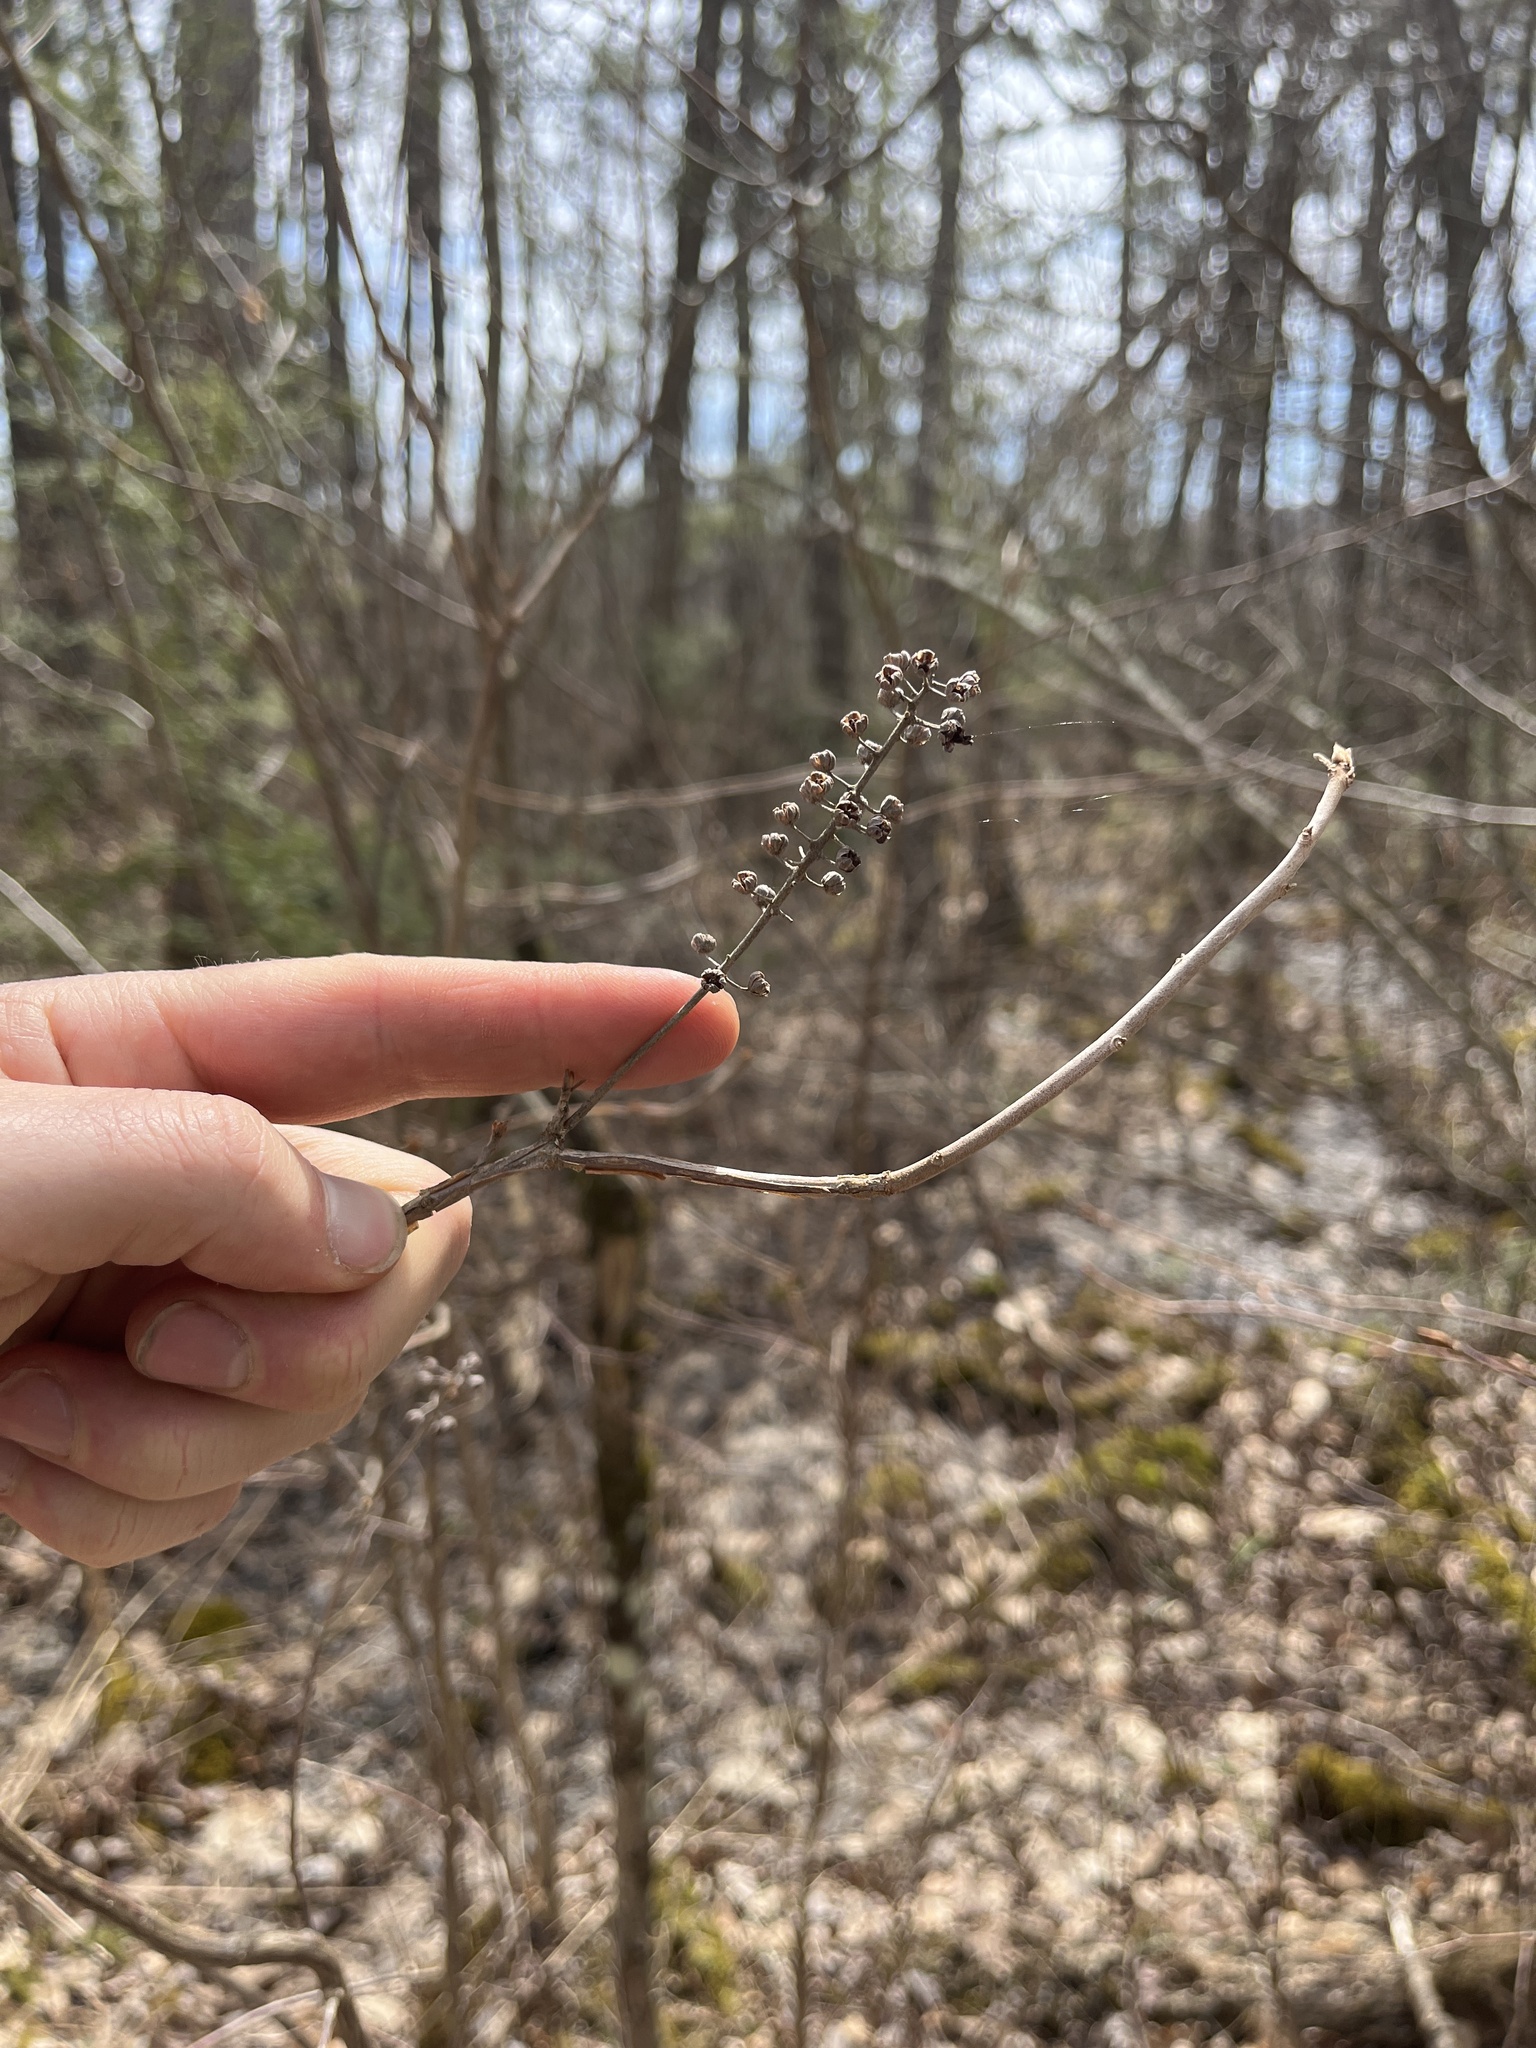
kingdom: Plantae
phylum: Tracheophyta
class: Magnoliopsida
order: Ericales
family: Clethraceae
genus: Clethra
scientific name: Clethra alnifolia
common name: Sweet pepperbush
